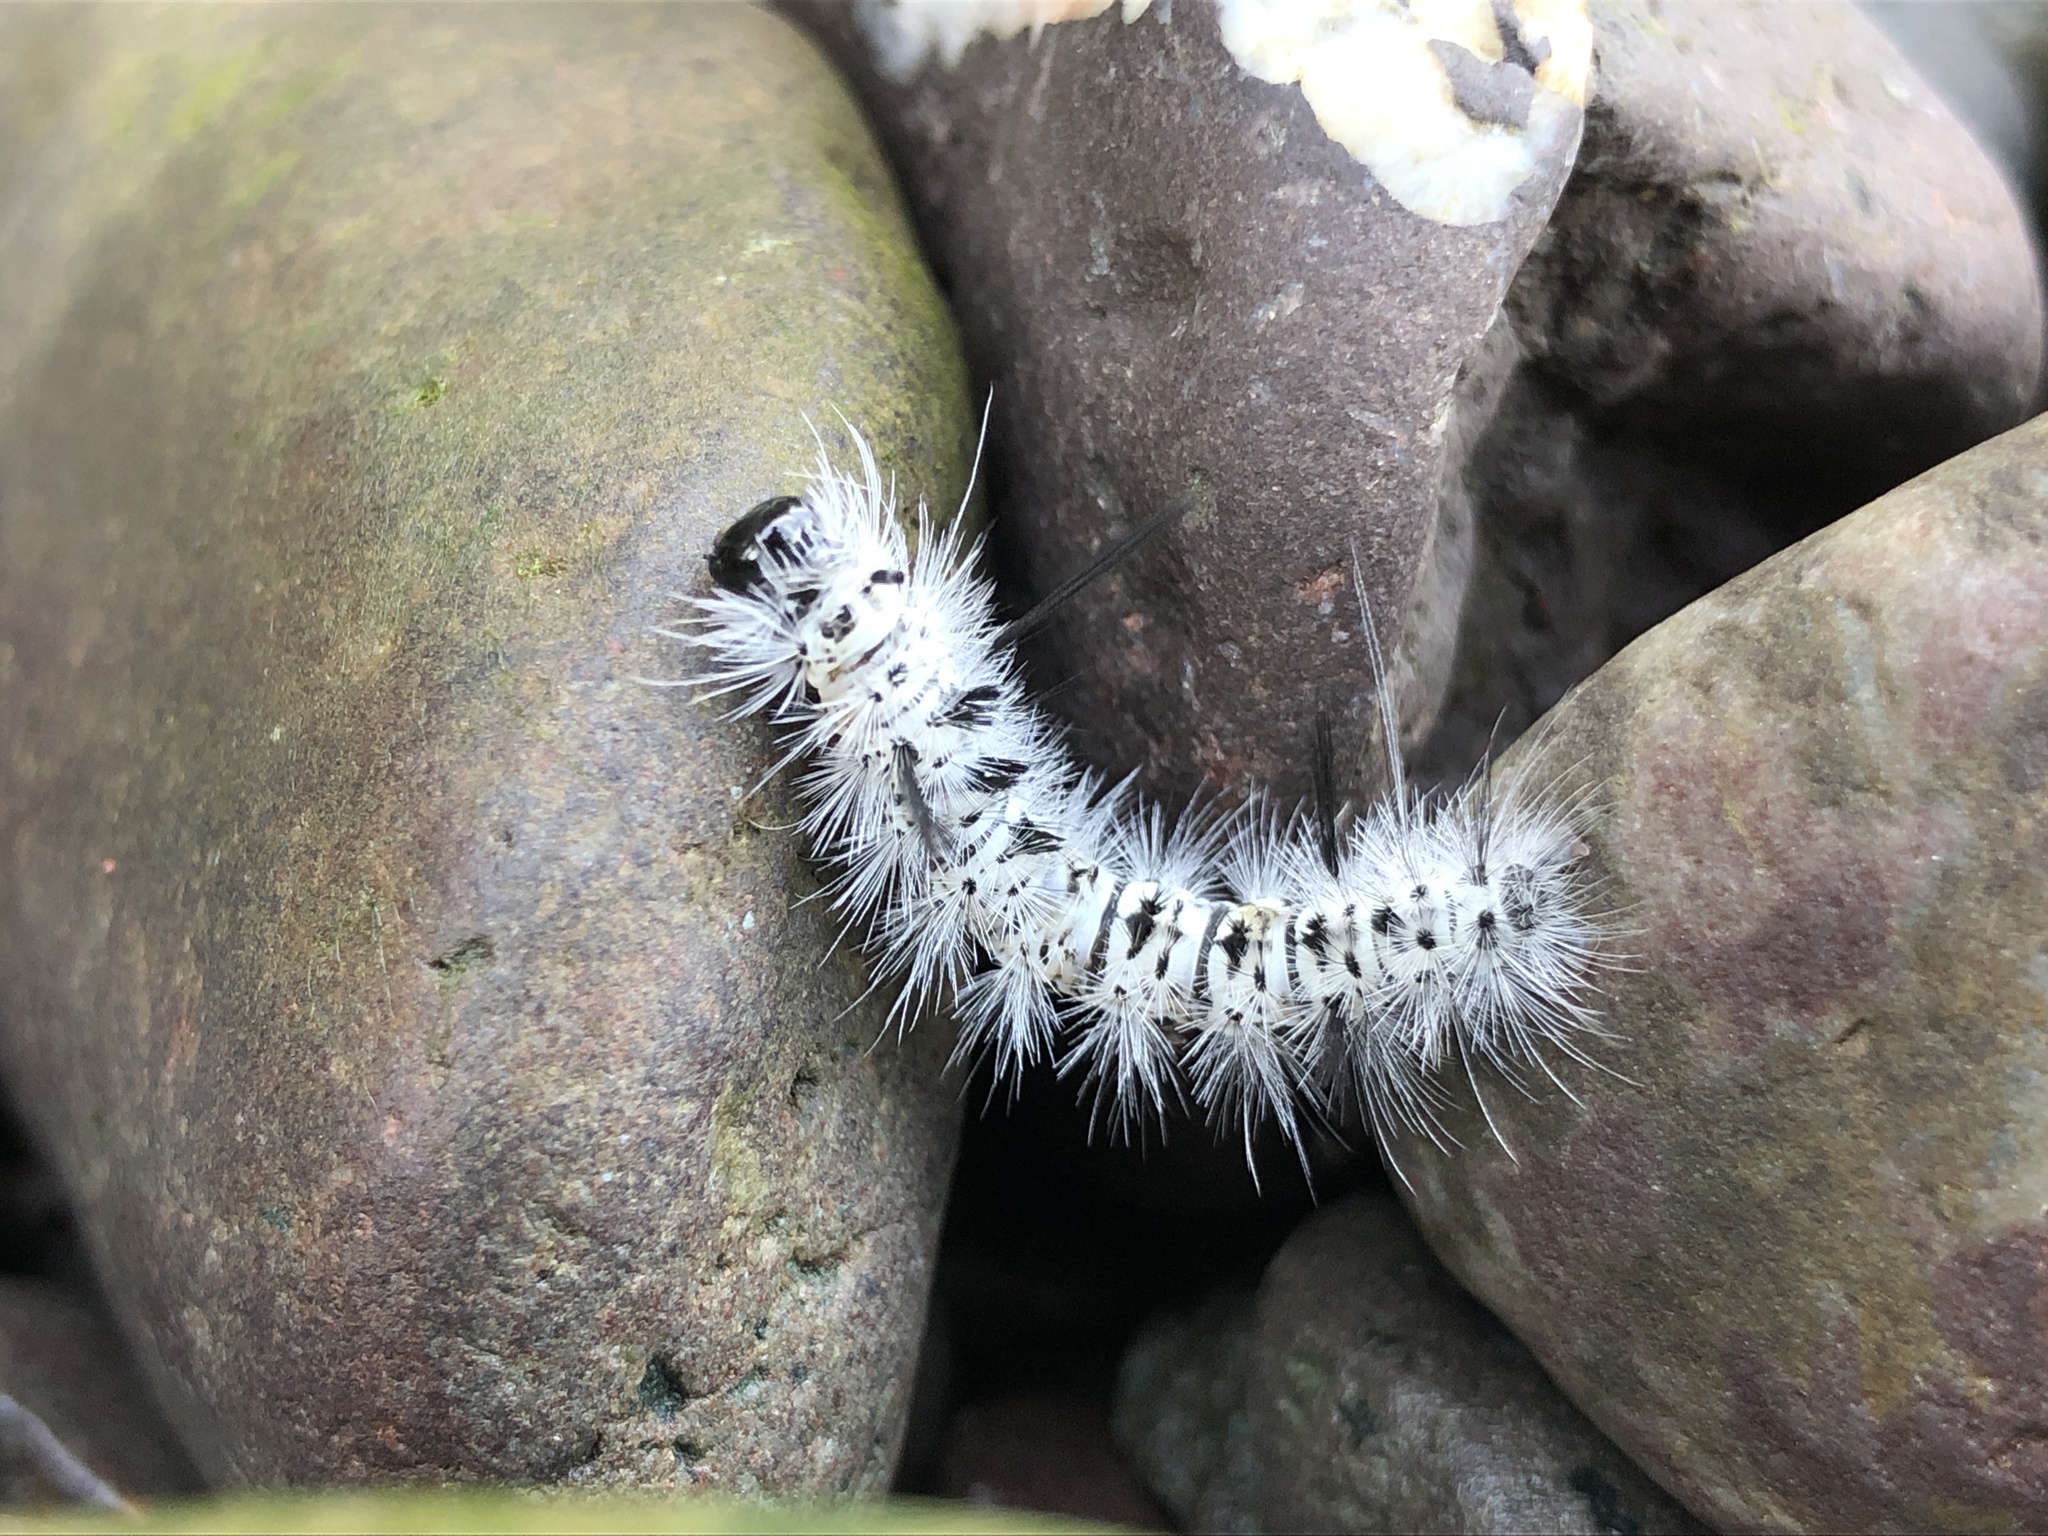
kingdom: Animalia
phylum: Arthropoda
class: Insecta
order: Lepidoptera
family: Erebidae
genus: Lophocampa
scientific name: Lophocampa caryae
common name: Hickory tussock moth
